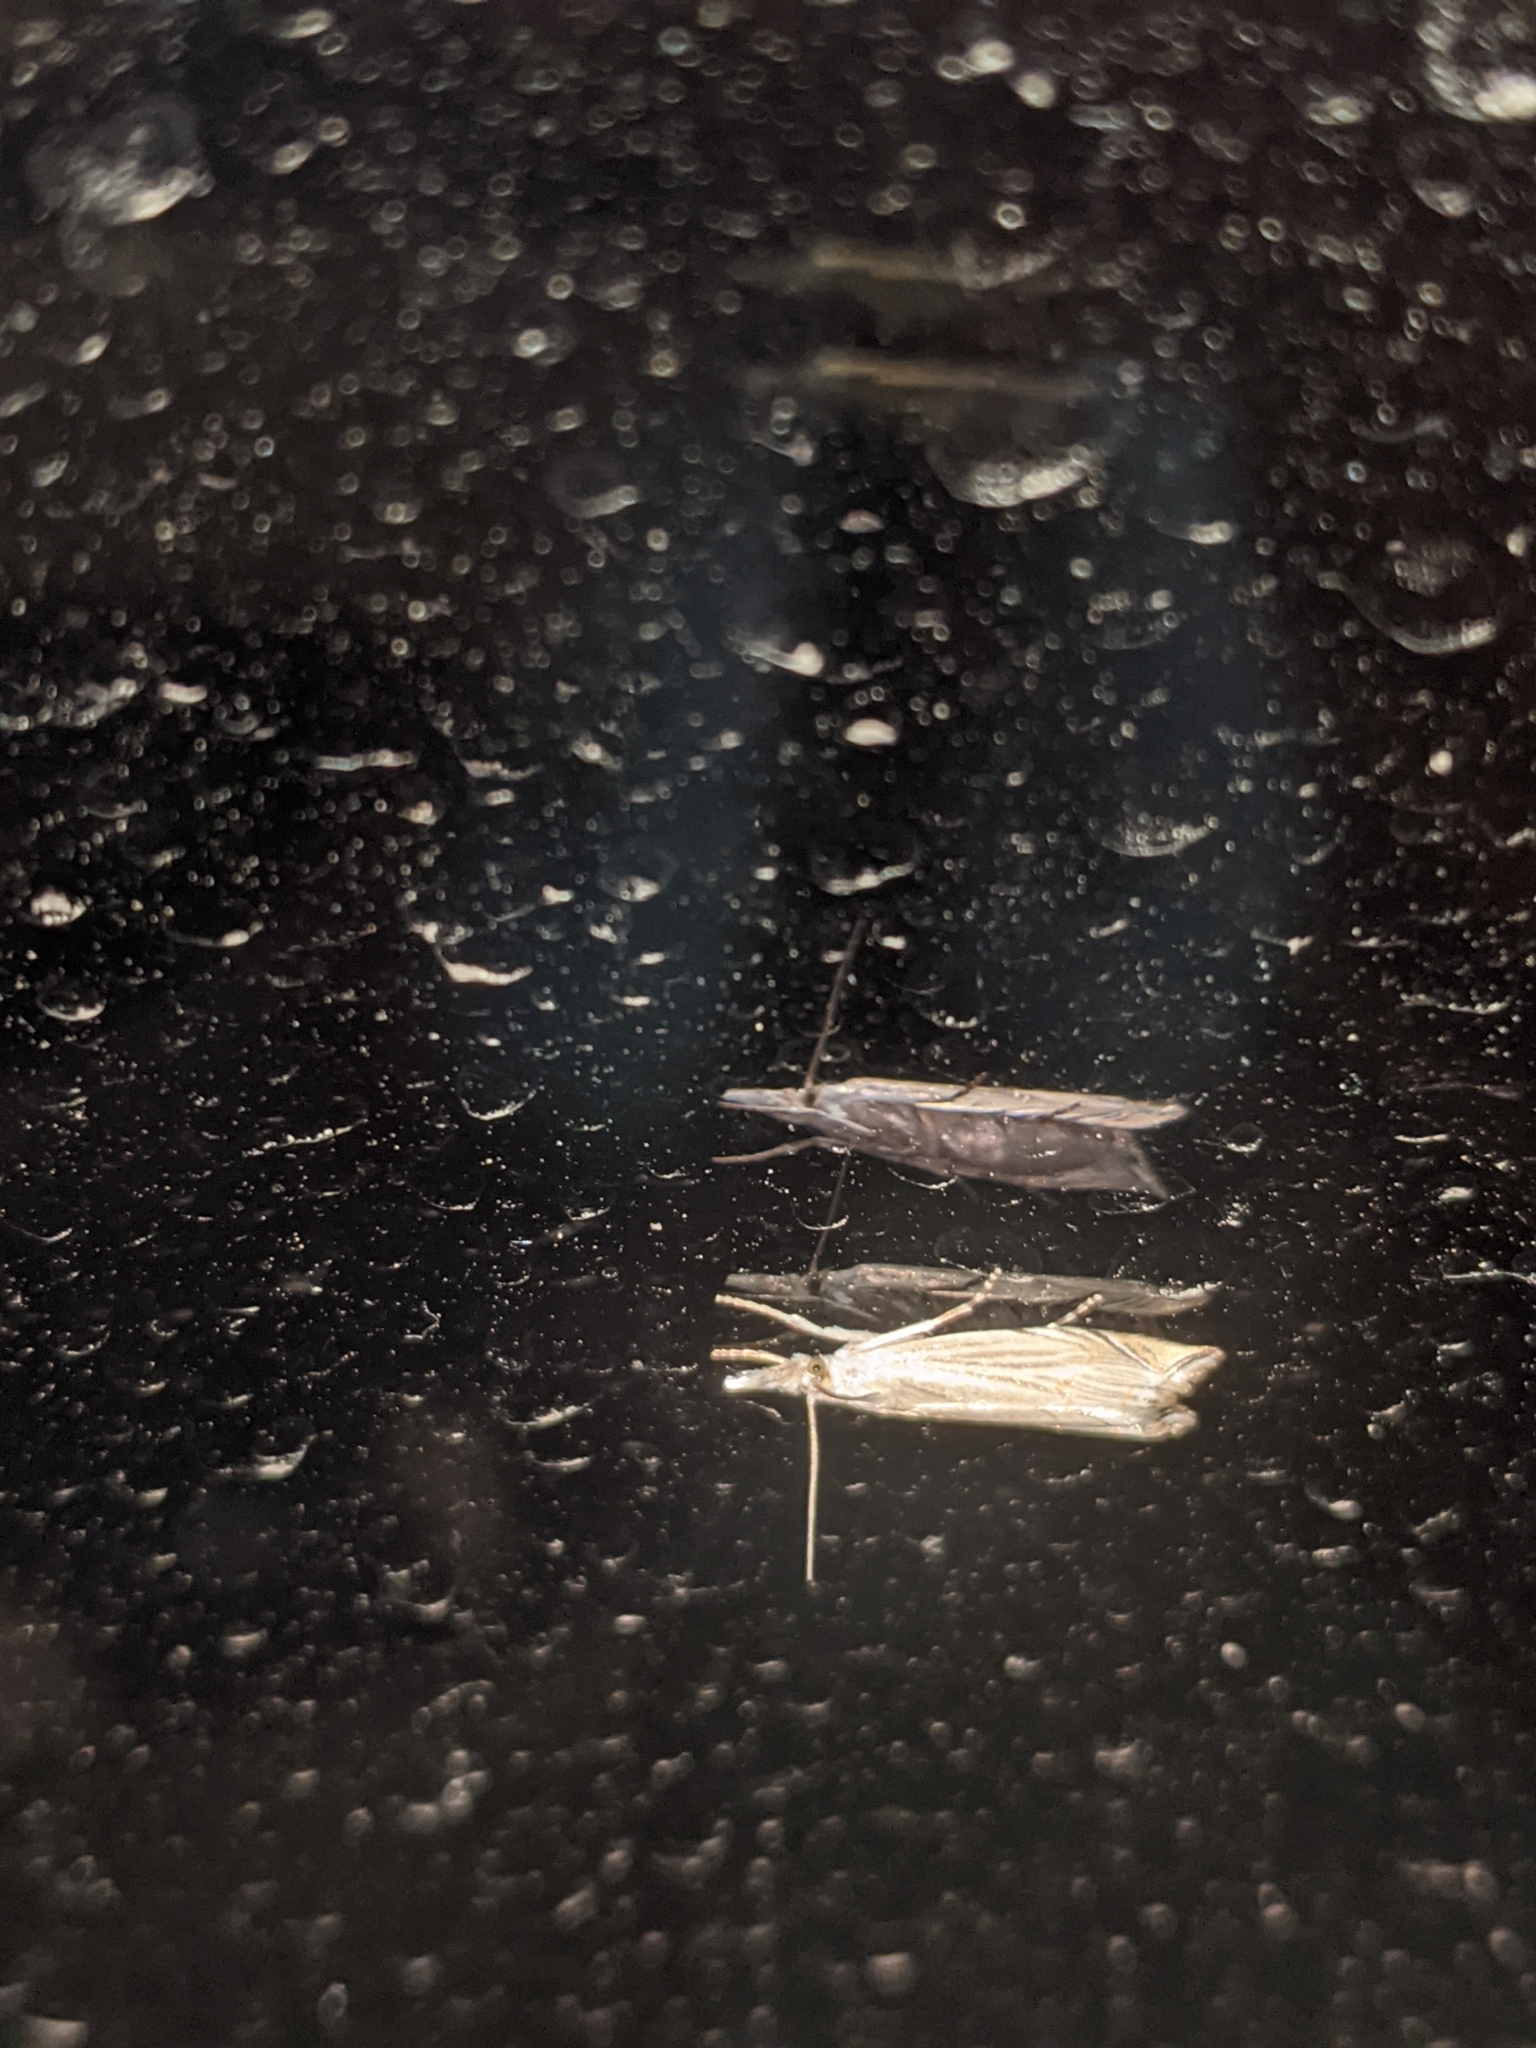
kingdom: Animalia
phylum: Arthropoda
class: Insecta
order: Lepidoptera
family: Crambidae
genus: Chrysoteuchia
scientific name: Chrysoteuchia culmella
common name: Garden grass-veneer
